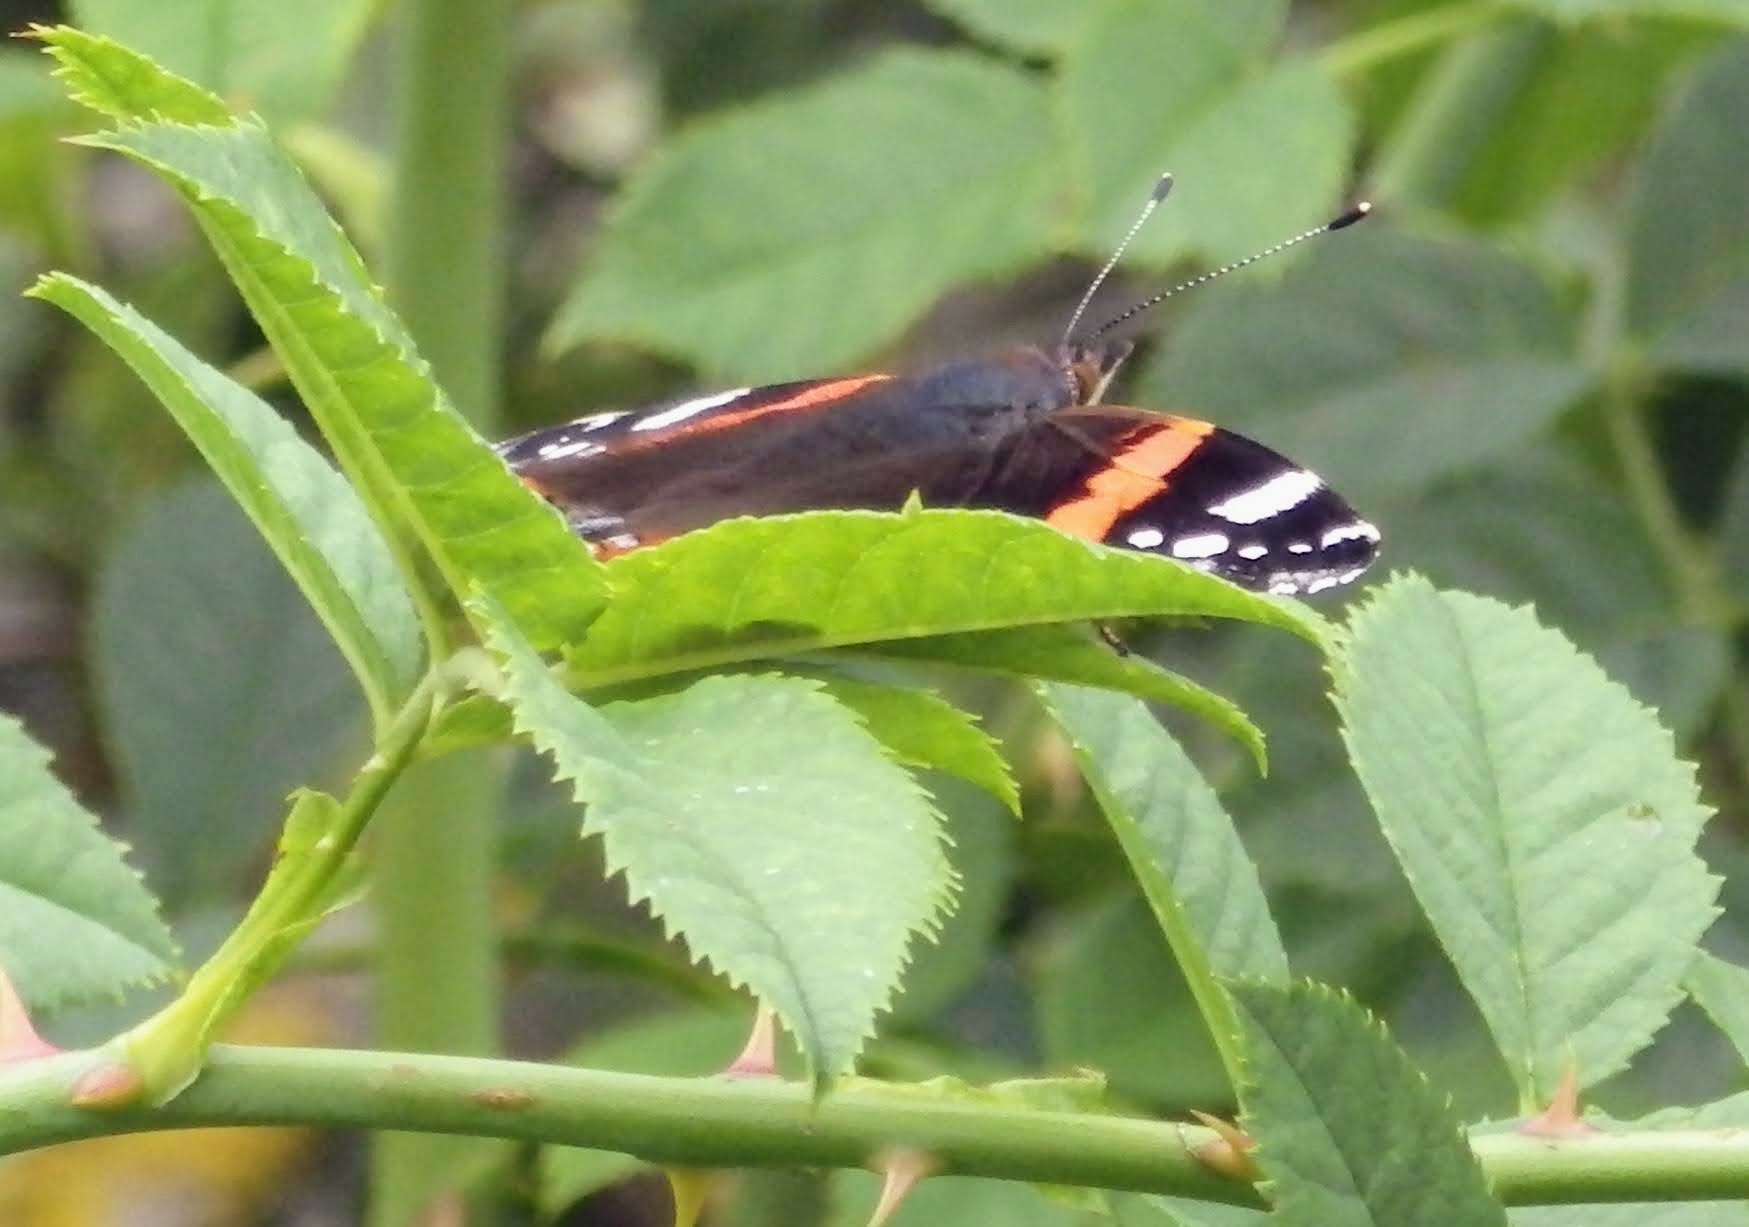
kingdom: Animalia
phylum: Arthropoda
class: Insecta
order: Lepidoptera
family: Nymphalidae
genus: Vanessa
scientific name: Vanessa atalanta
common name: Red admiral
